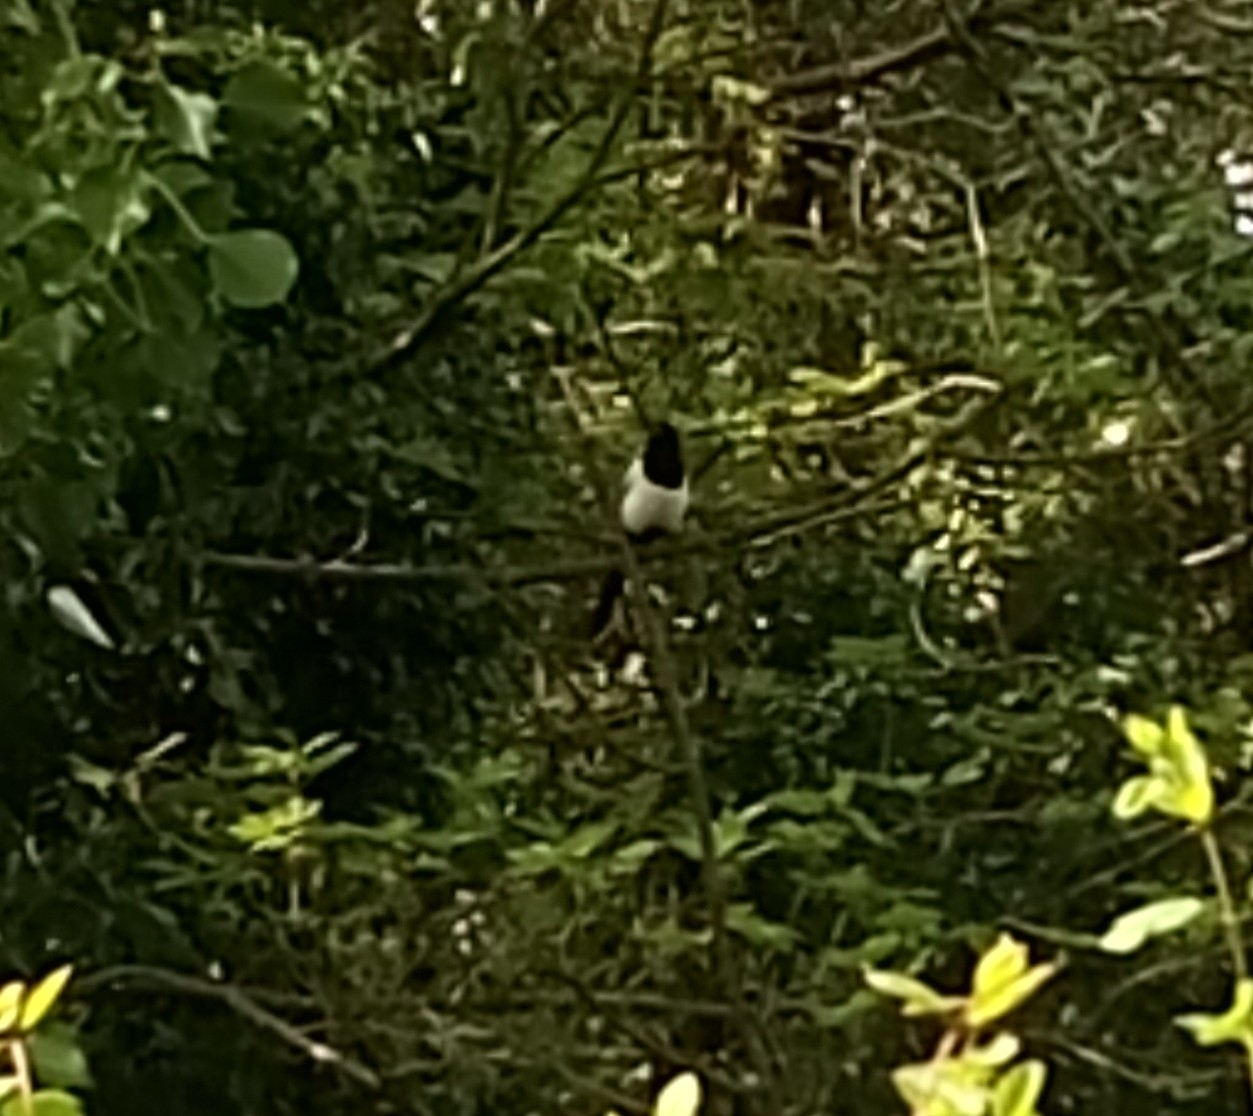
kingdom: Animalia
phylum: Chordata
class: Aves
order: Passeriformes
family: Corvidae
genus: Pica
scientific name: Pica pica
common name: Eurasian magpie
